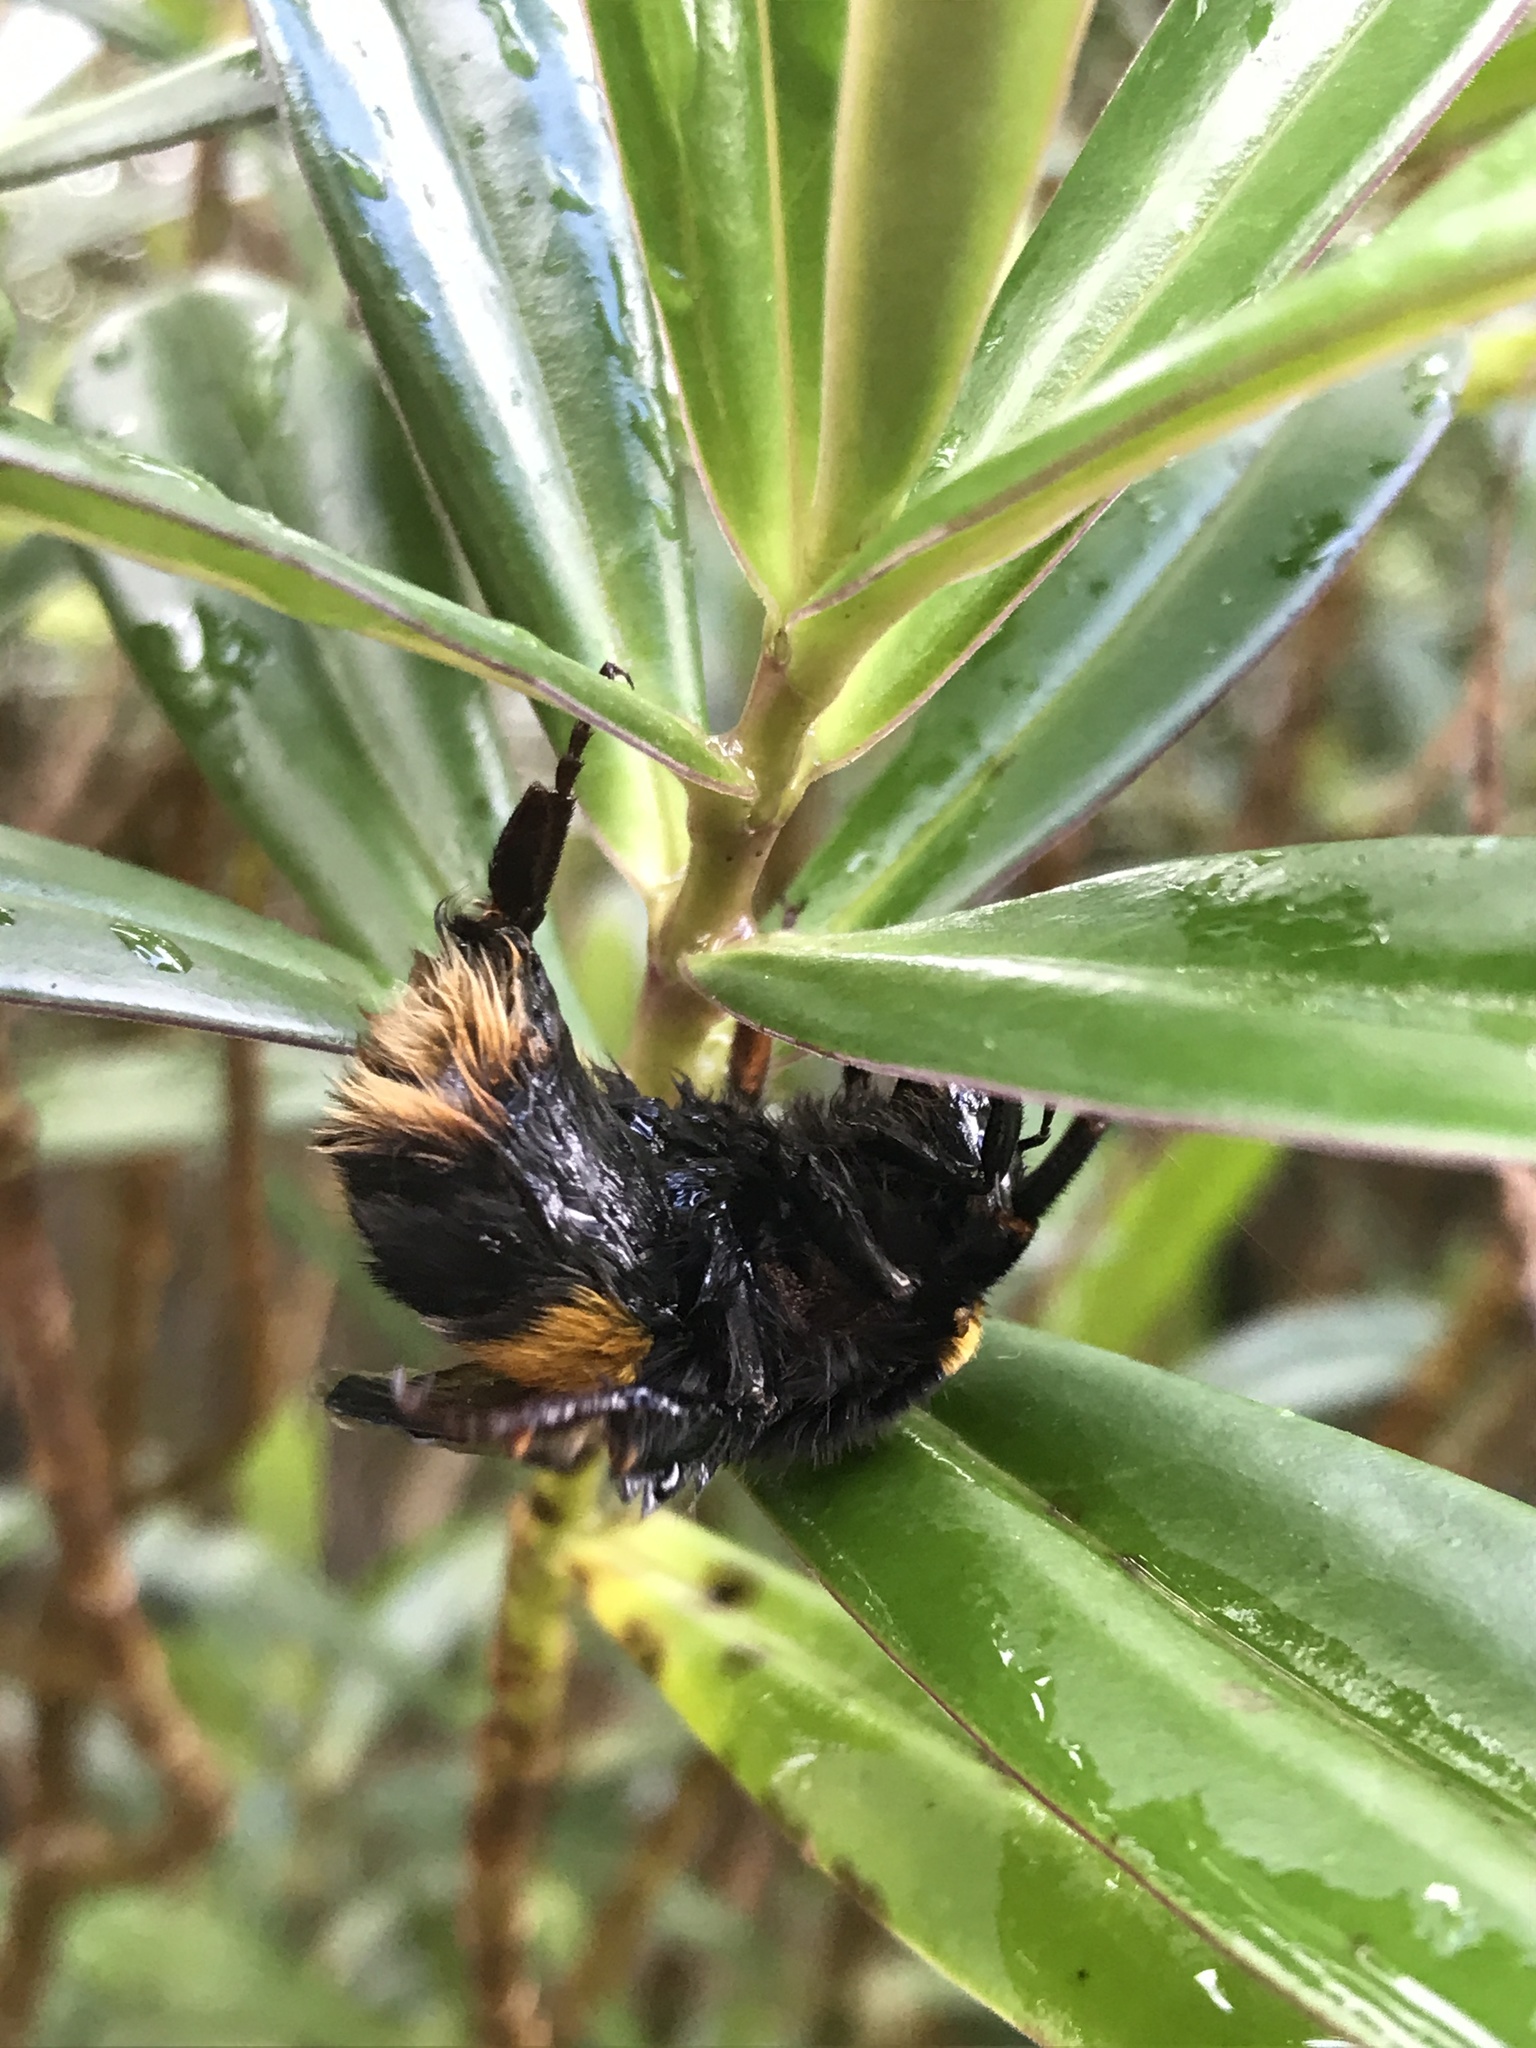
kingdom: Animalia
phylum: Arthropoda
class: Insecta
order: Hymenoptera
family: Apidae
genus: Bombus
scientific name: Bombus terrestris
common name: Buff-tailed bumblebee
